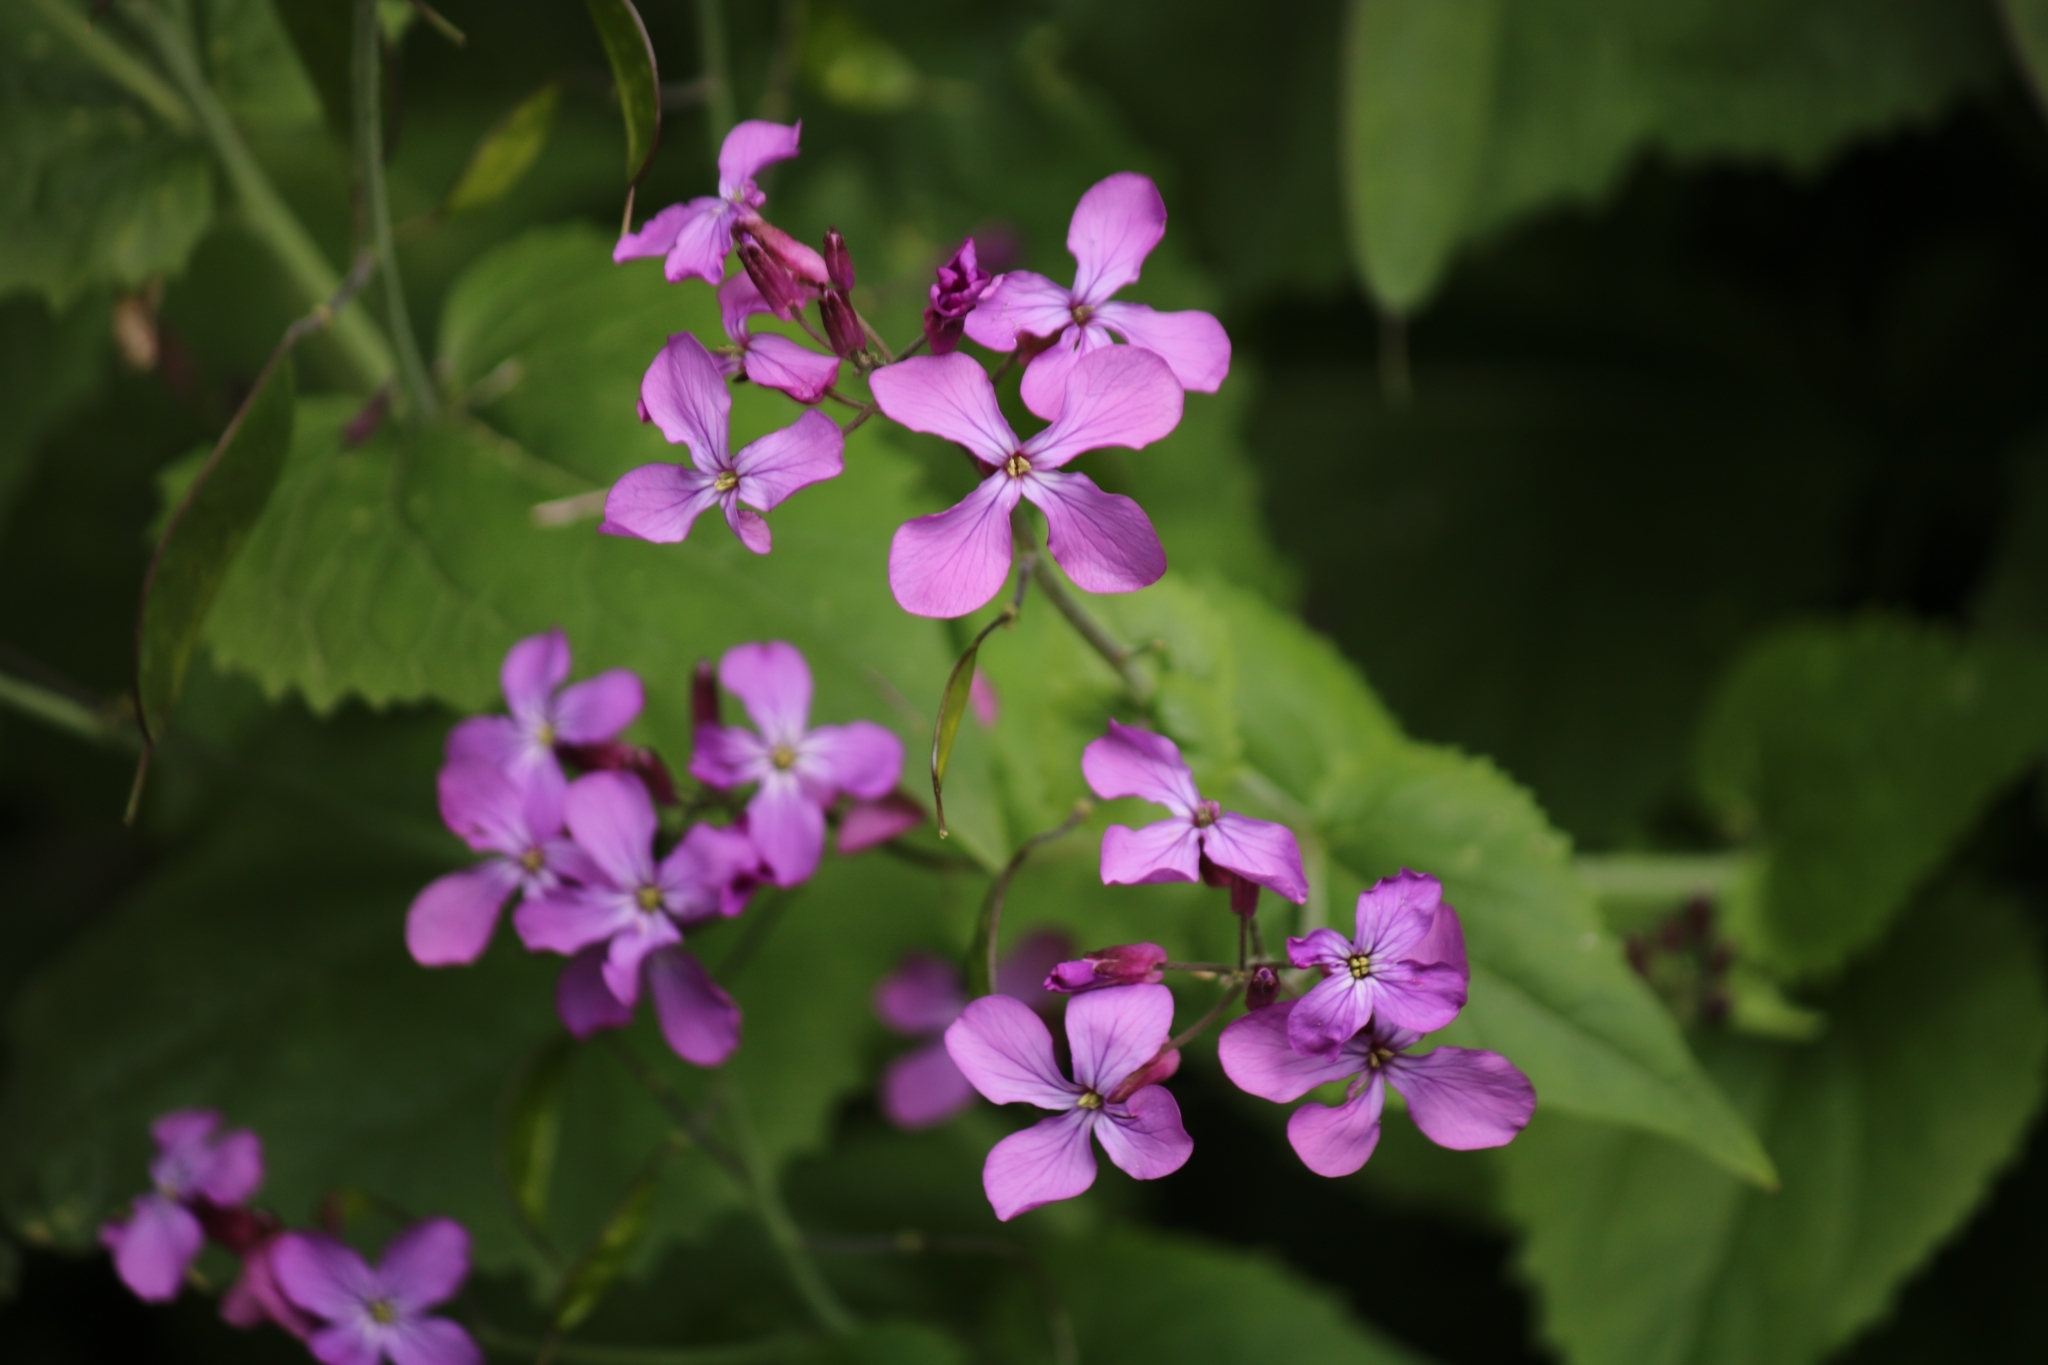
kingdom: Plantae
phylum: Tracheophyta
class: Magnoliopsida
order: Brassicales
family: Brassicaceae
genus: Lunaria
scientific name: Lunaria annua
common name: Honesty
